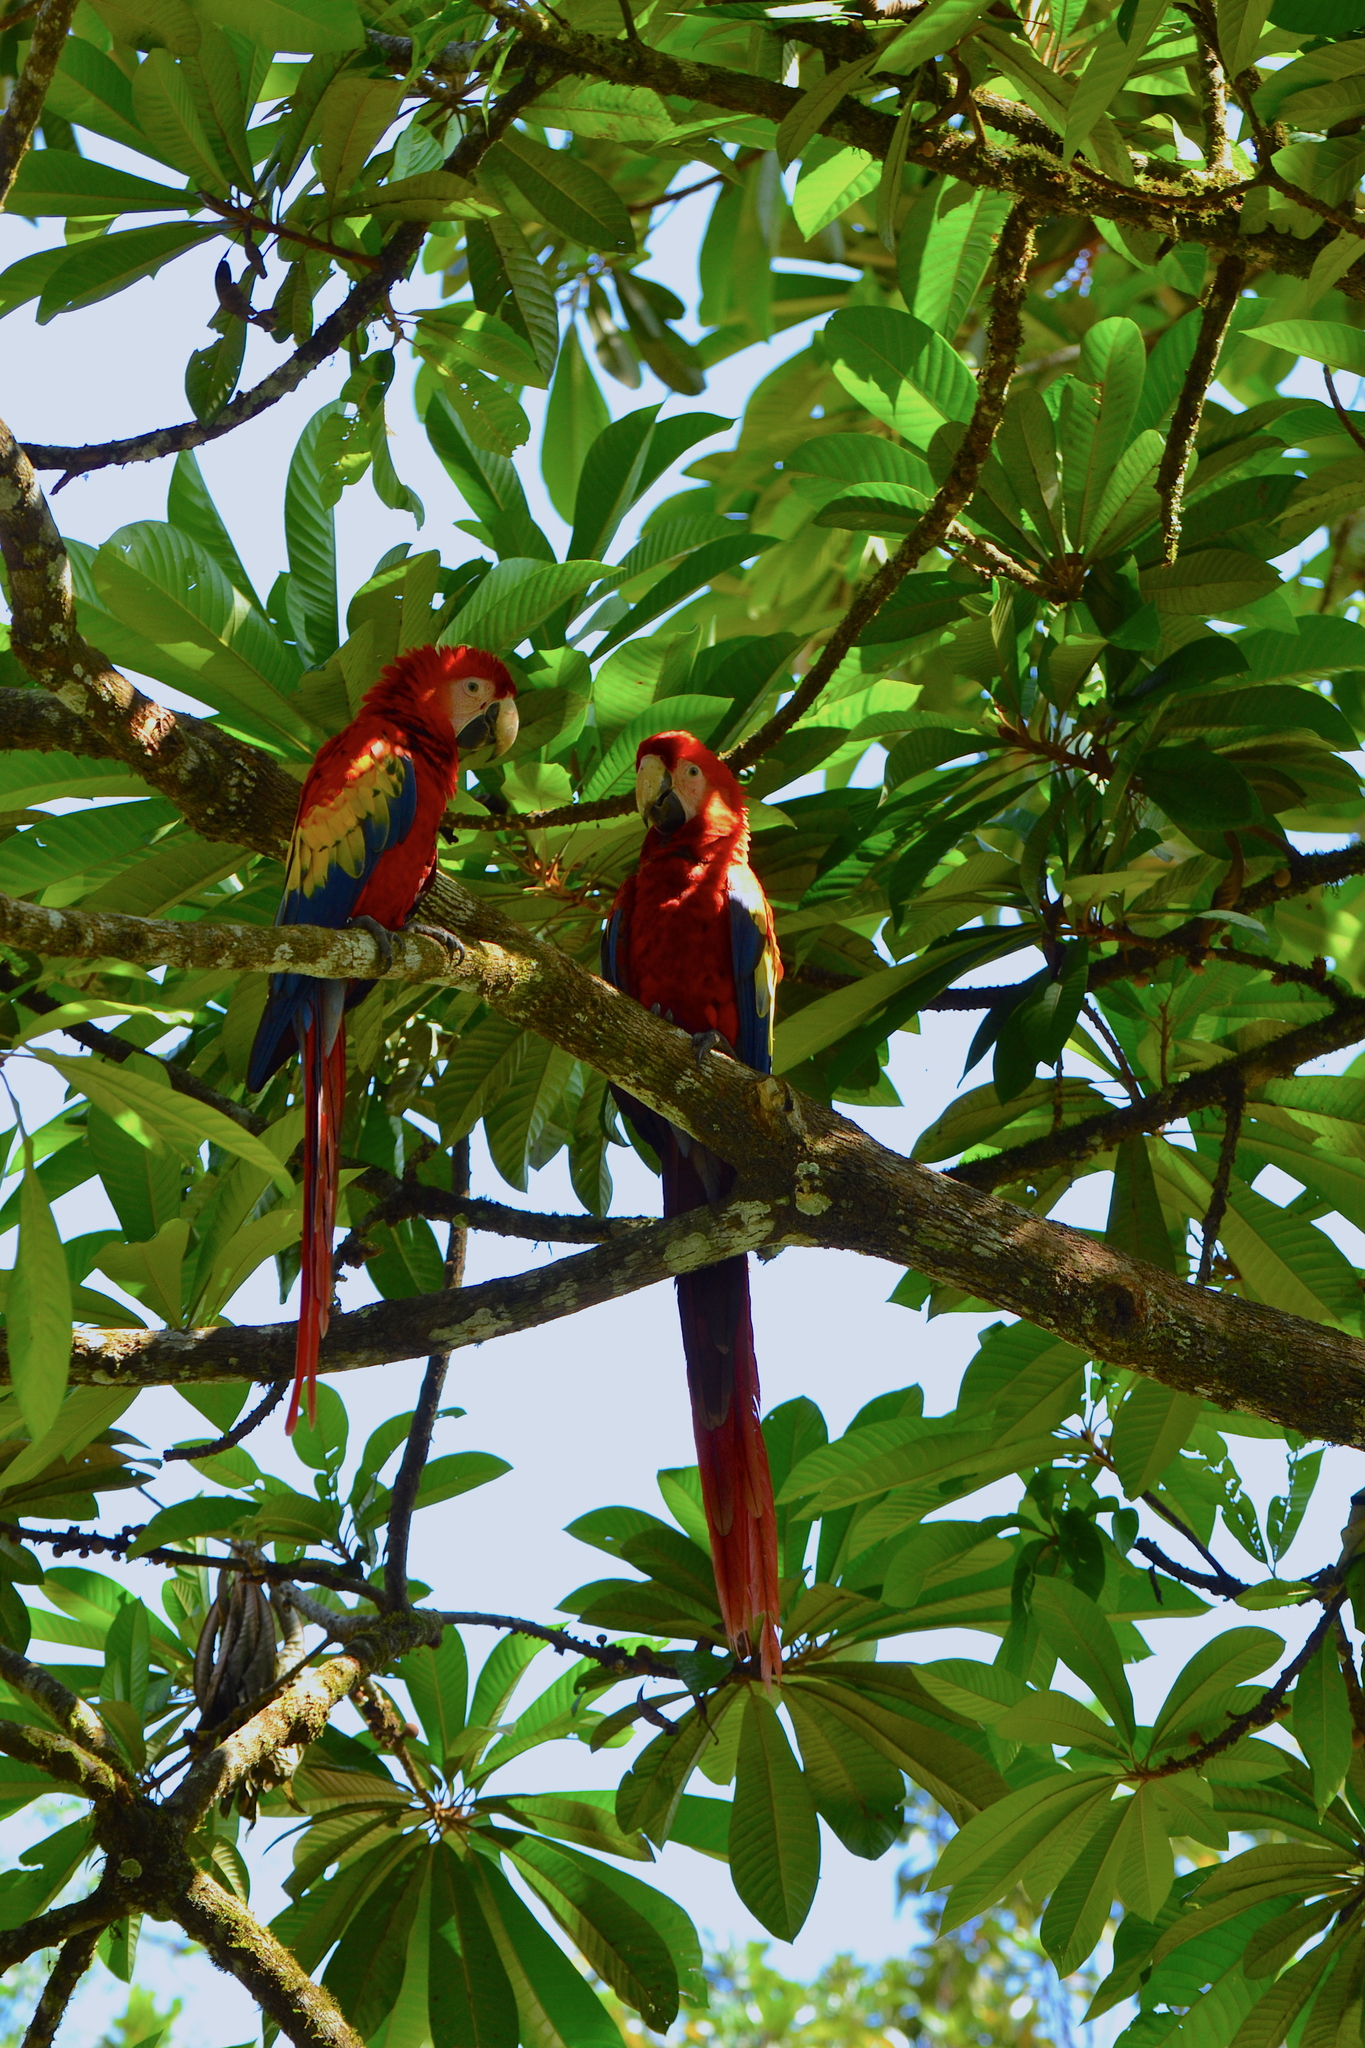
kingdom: Animalia
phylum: Chordata
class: Aves
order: Psittaciformes
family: Psittacidae
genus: Ara
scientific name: Ara macao
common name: Scarlet macaw
